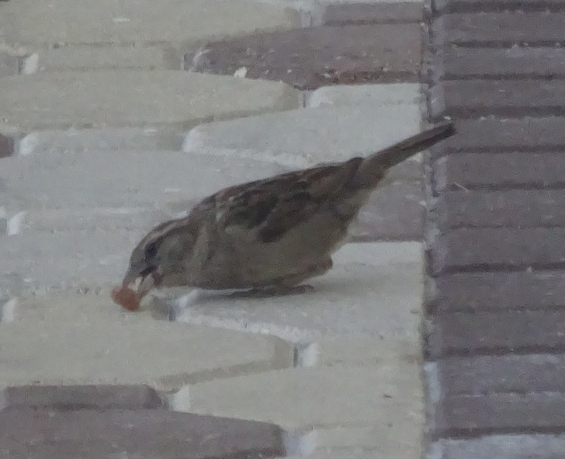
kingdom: Animalia
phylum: Chordata
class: Aves
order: Passeriformes
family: Passeridae
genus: Passer
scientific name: Passer domesticus
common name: House sparrow
